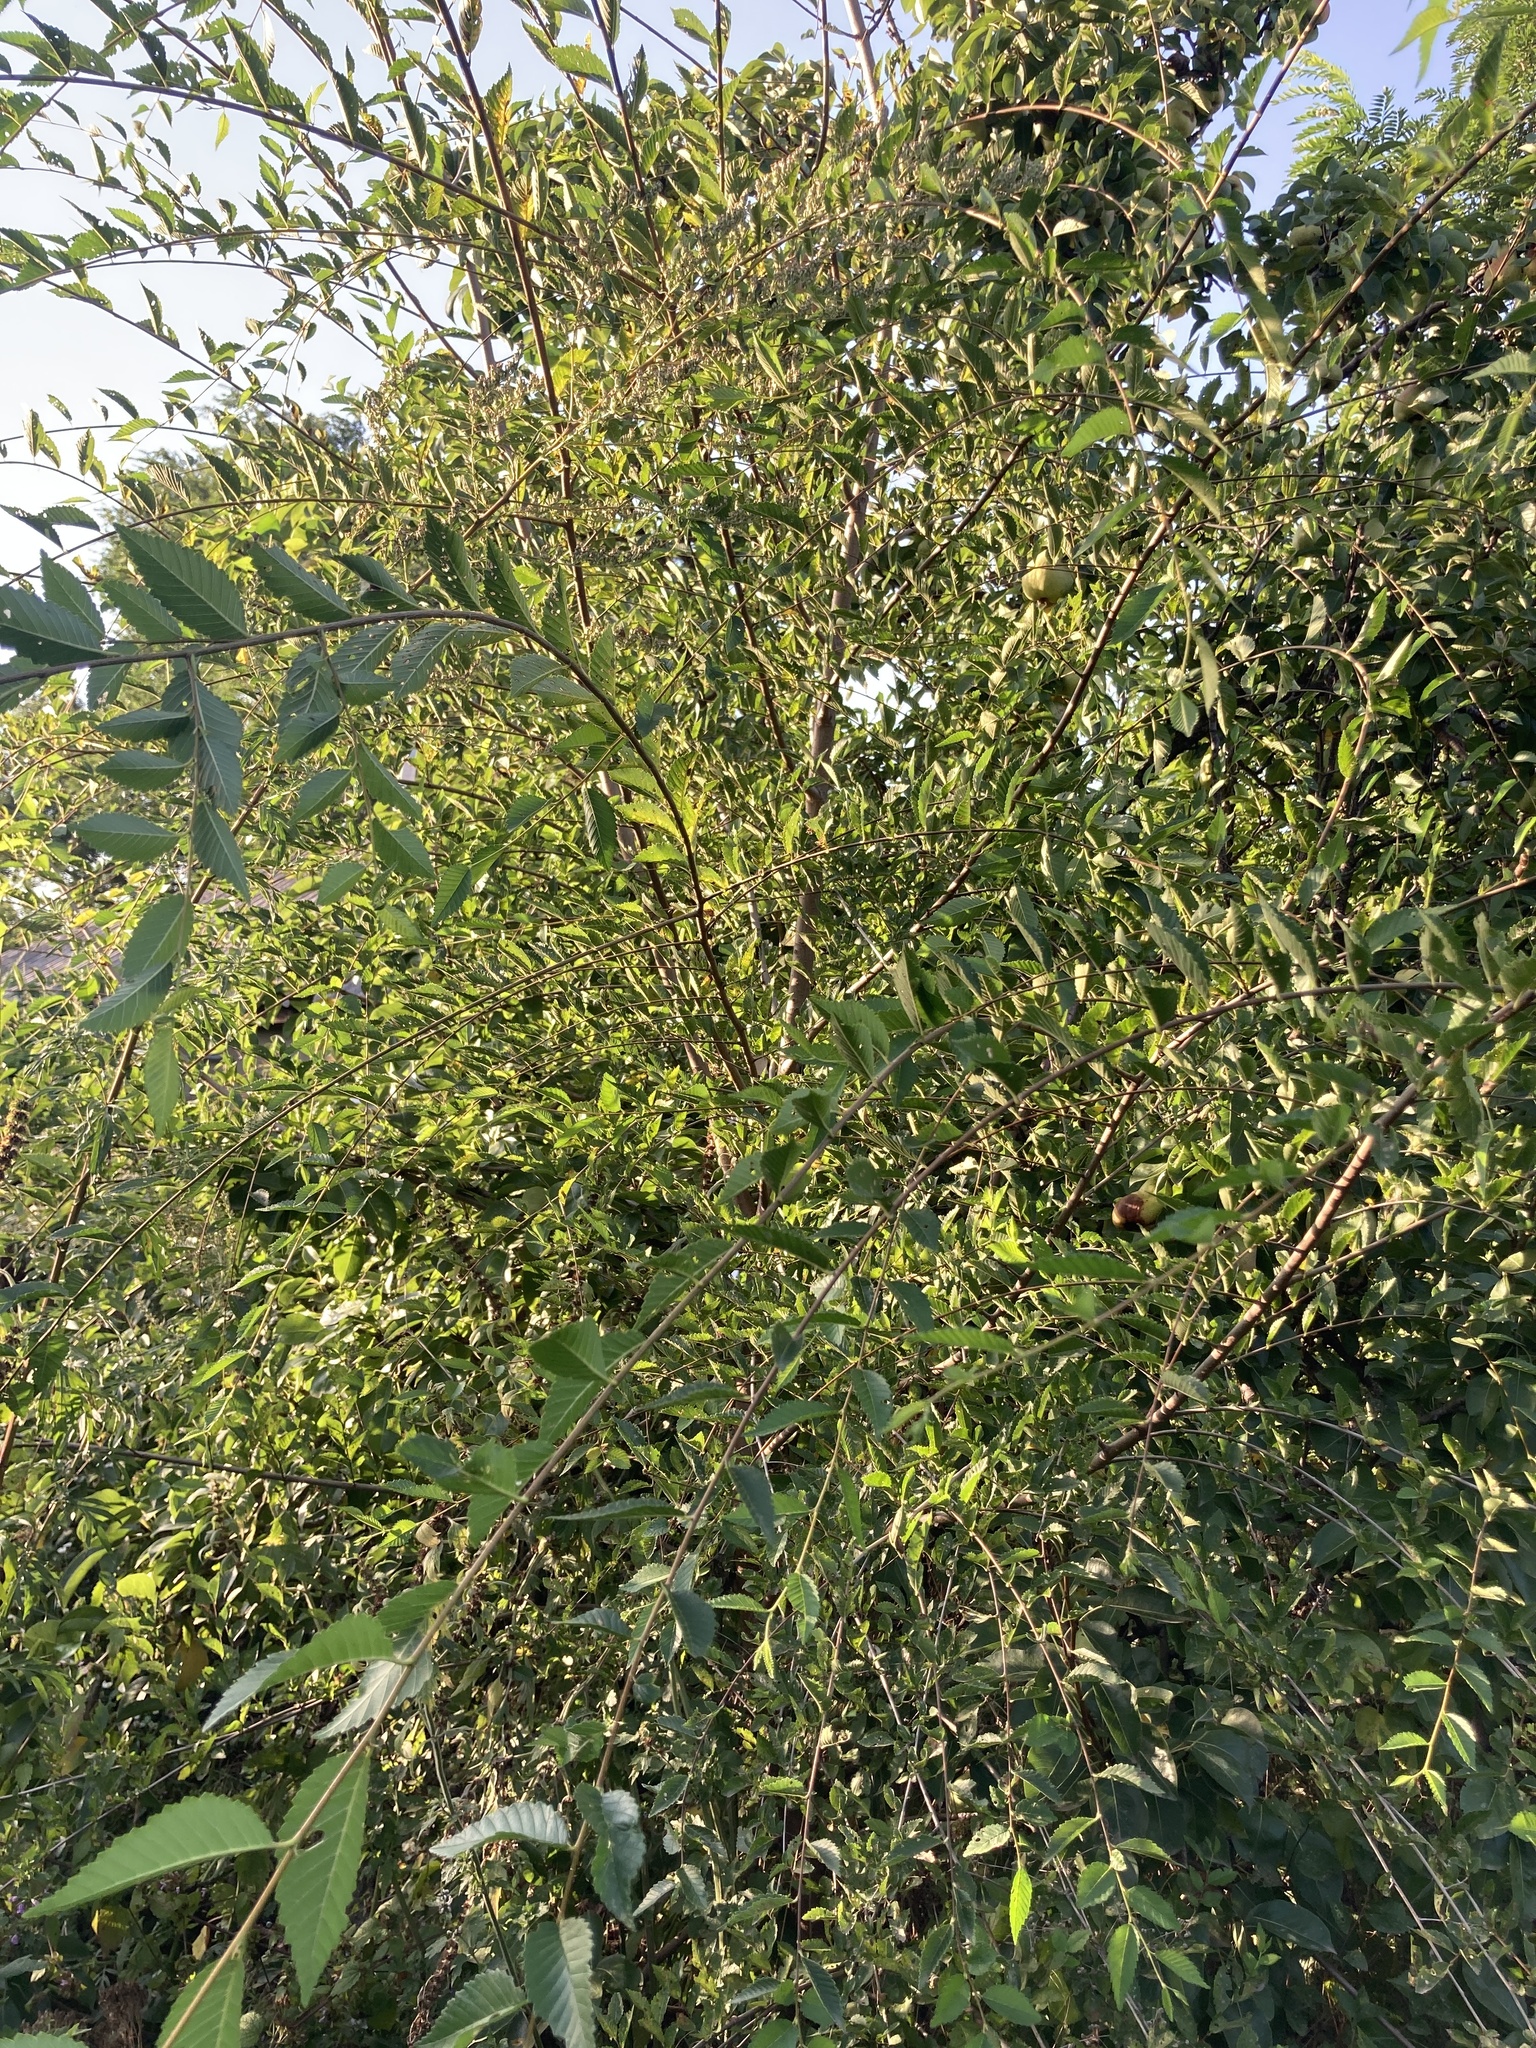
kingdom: Plantae
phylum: Tracheophyta
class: Magnoliopsida
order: Rosales
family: Ulmaceae
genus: Ulmus
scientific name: Ulmus pumila
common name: Siberian elm
